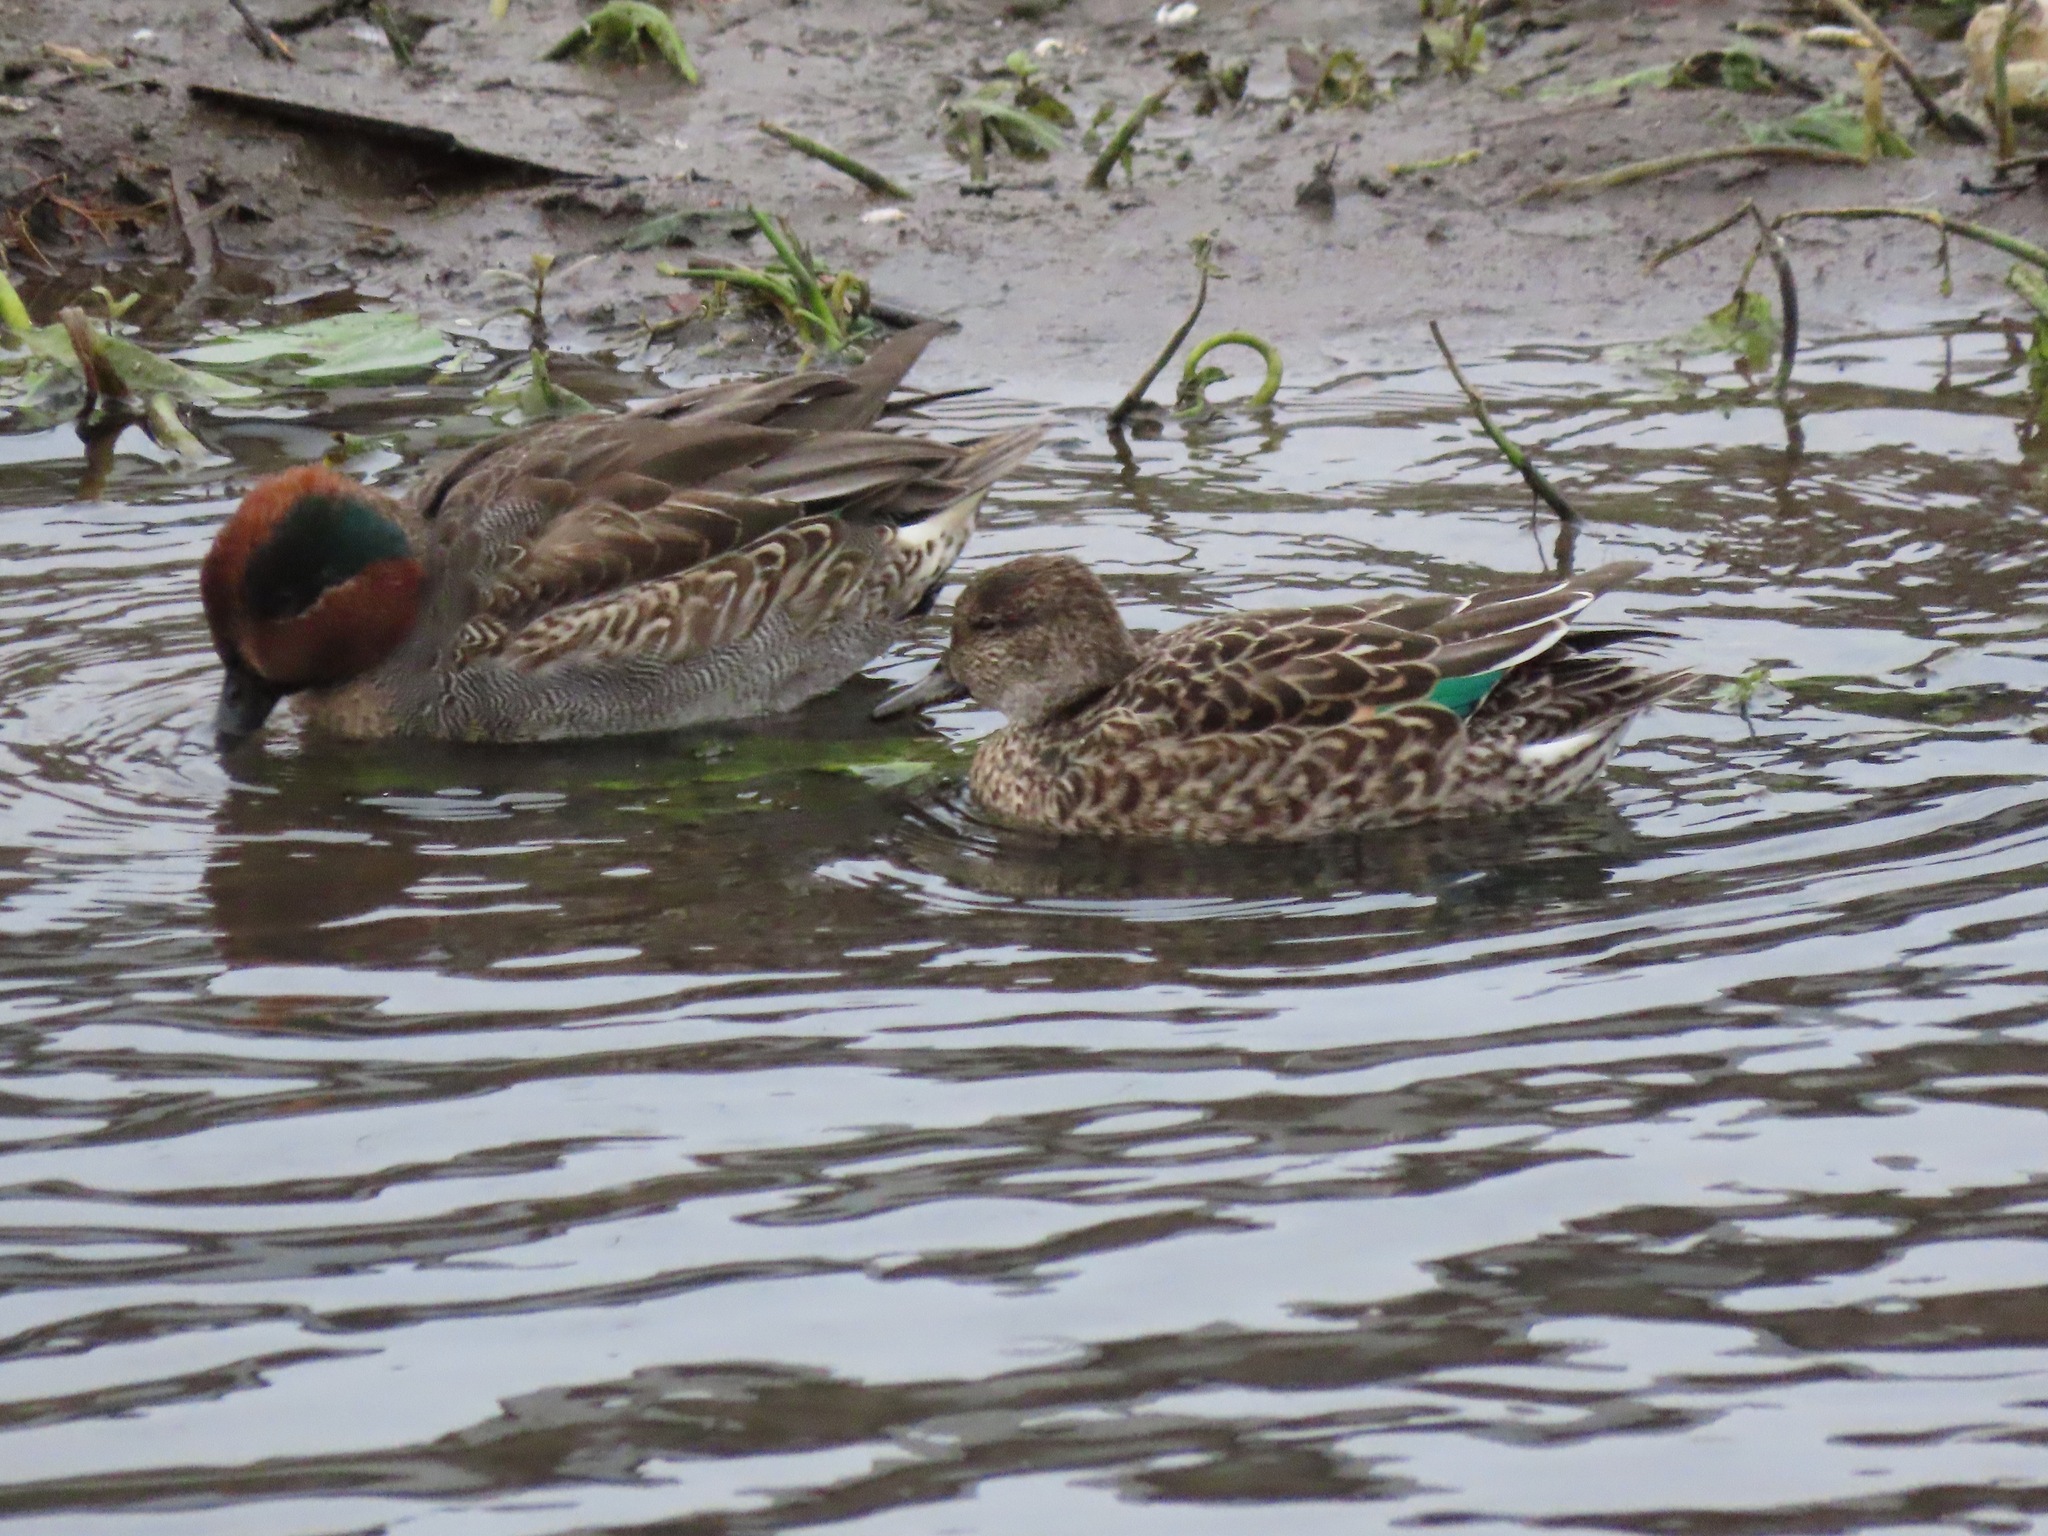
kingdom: Animalia
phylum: Chordata
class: Aves
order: Anseriformes
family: Anatidae
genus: Anas
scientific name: Anas crecca
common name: Eurasian teal
